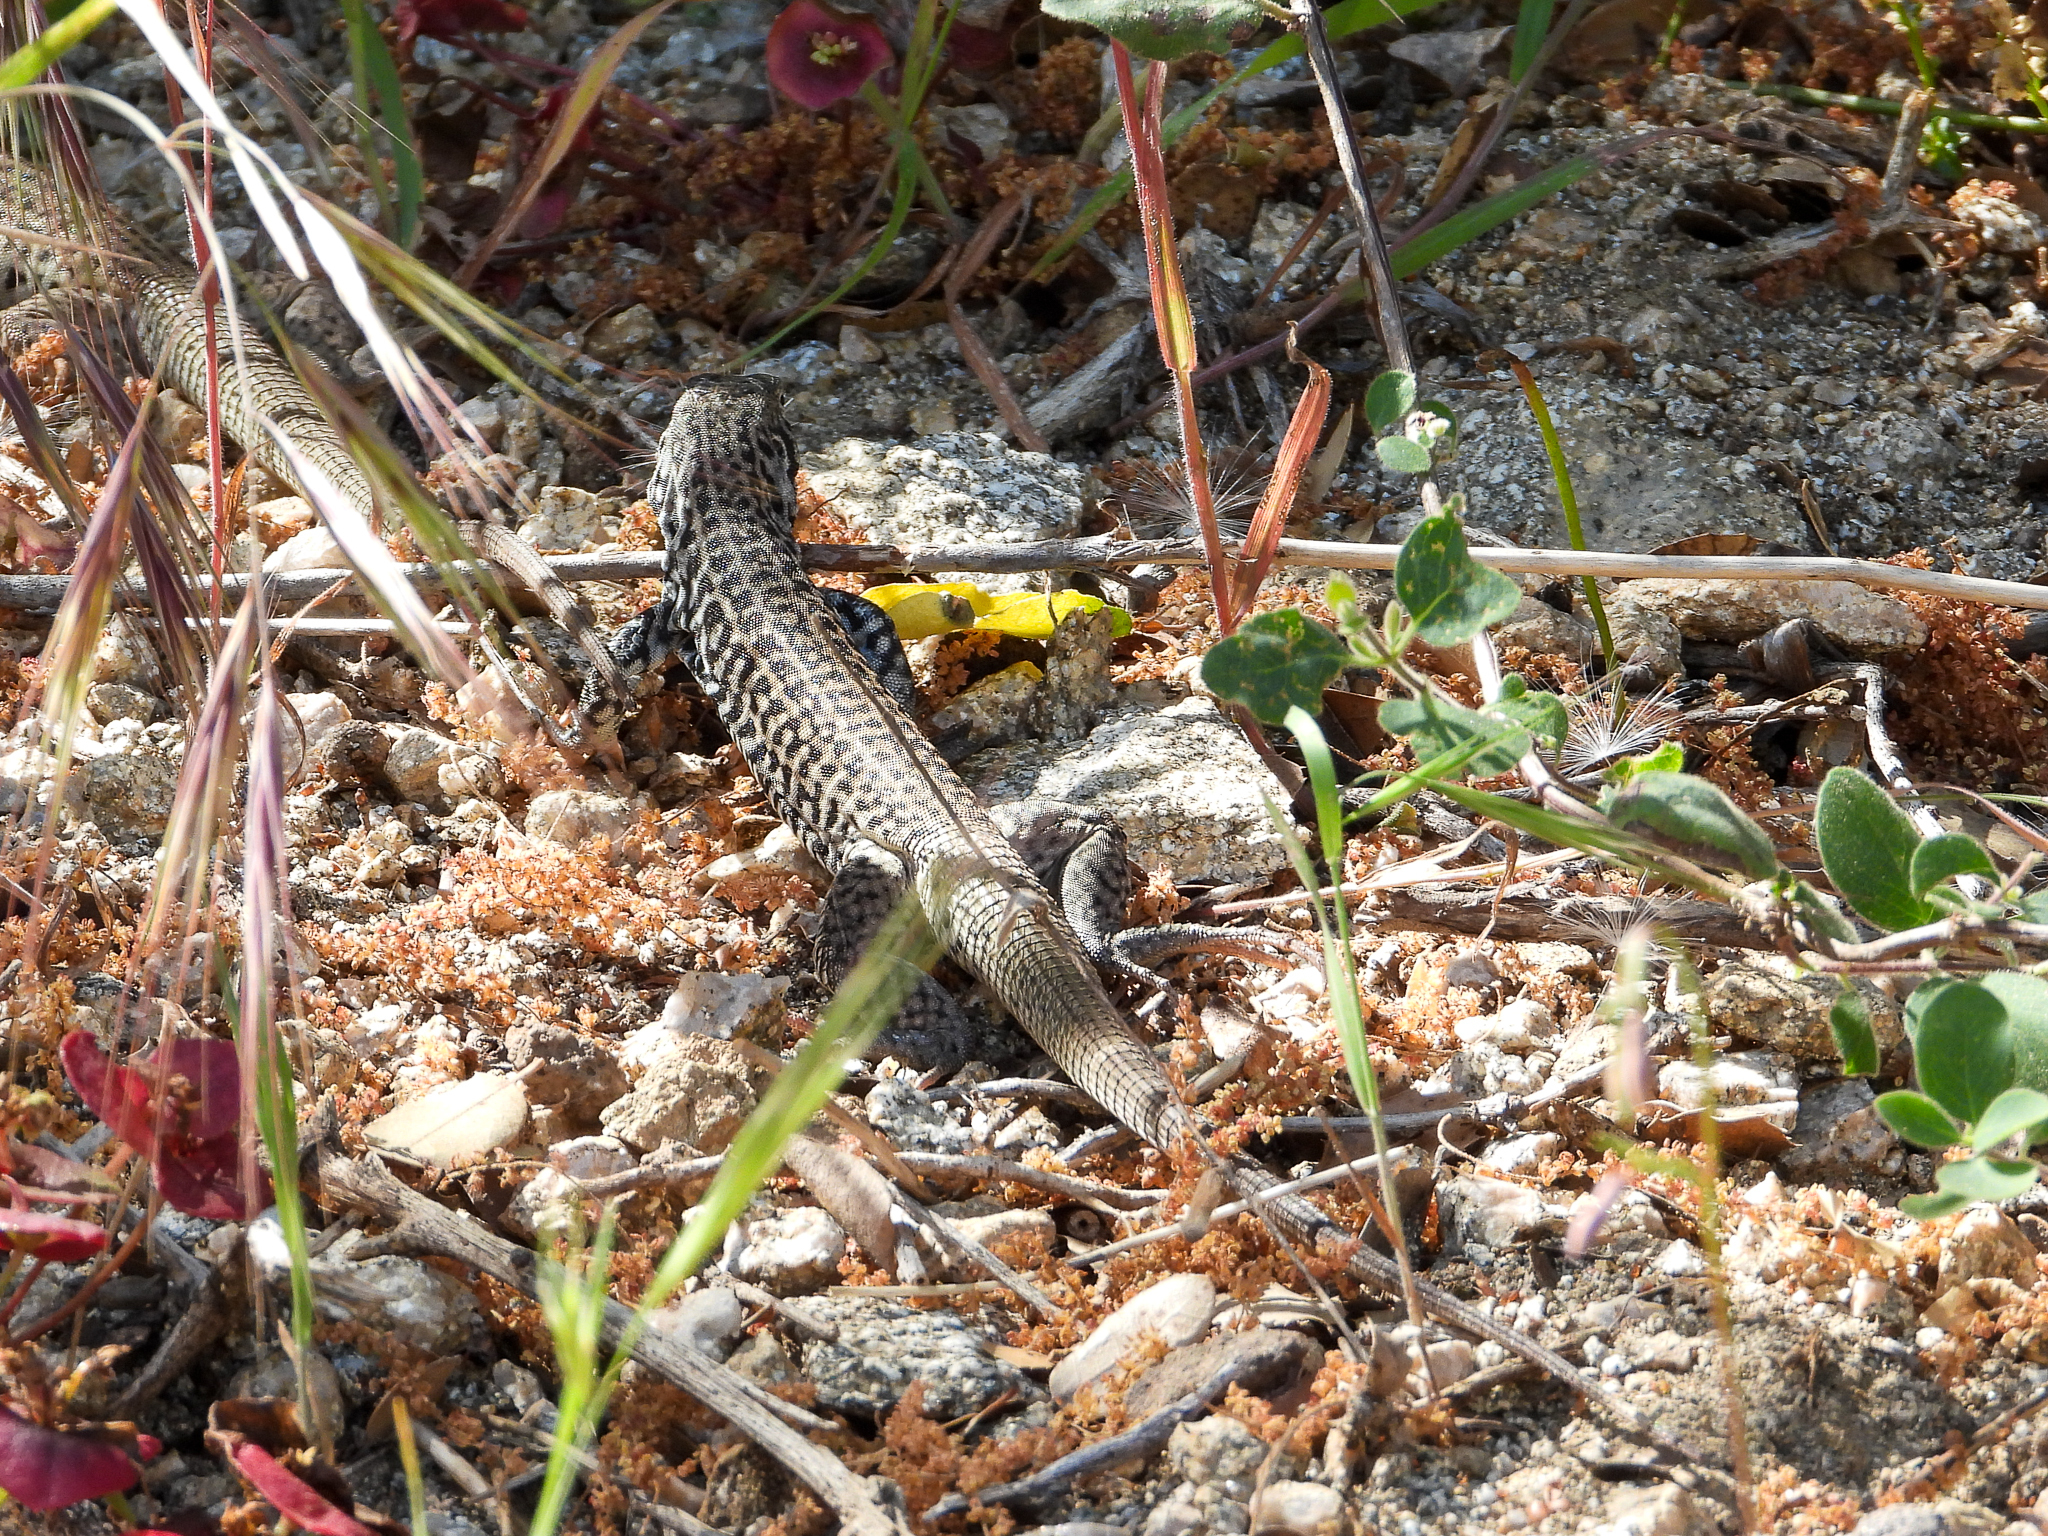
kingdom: Animalia
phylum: Chordata
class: Squamata
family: Teiidae
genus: Aspidoscelis
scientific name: Aspidoscelis tigris
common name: Tiger whiptail
